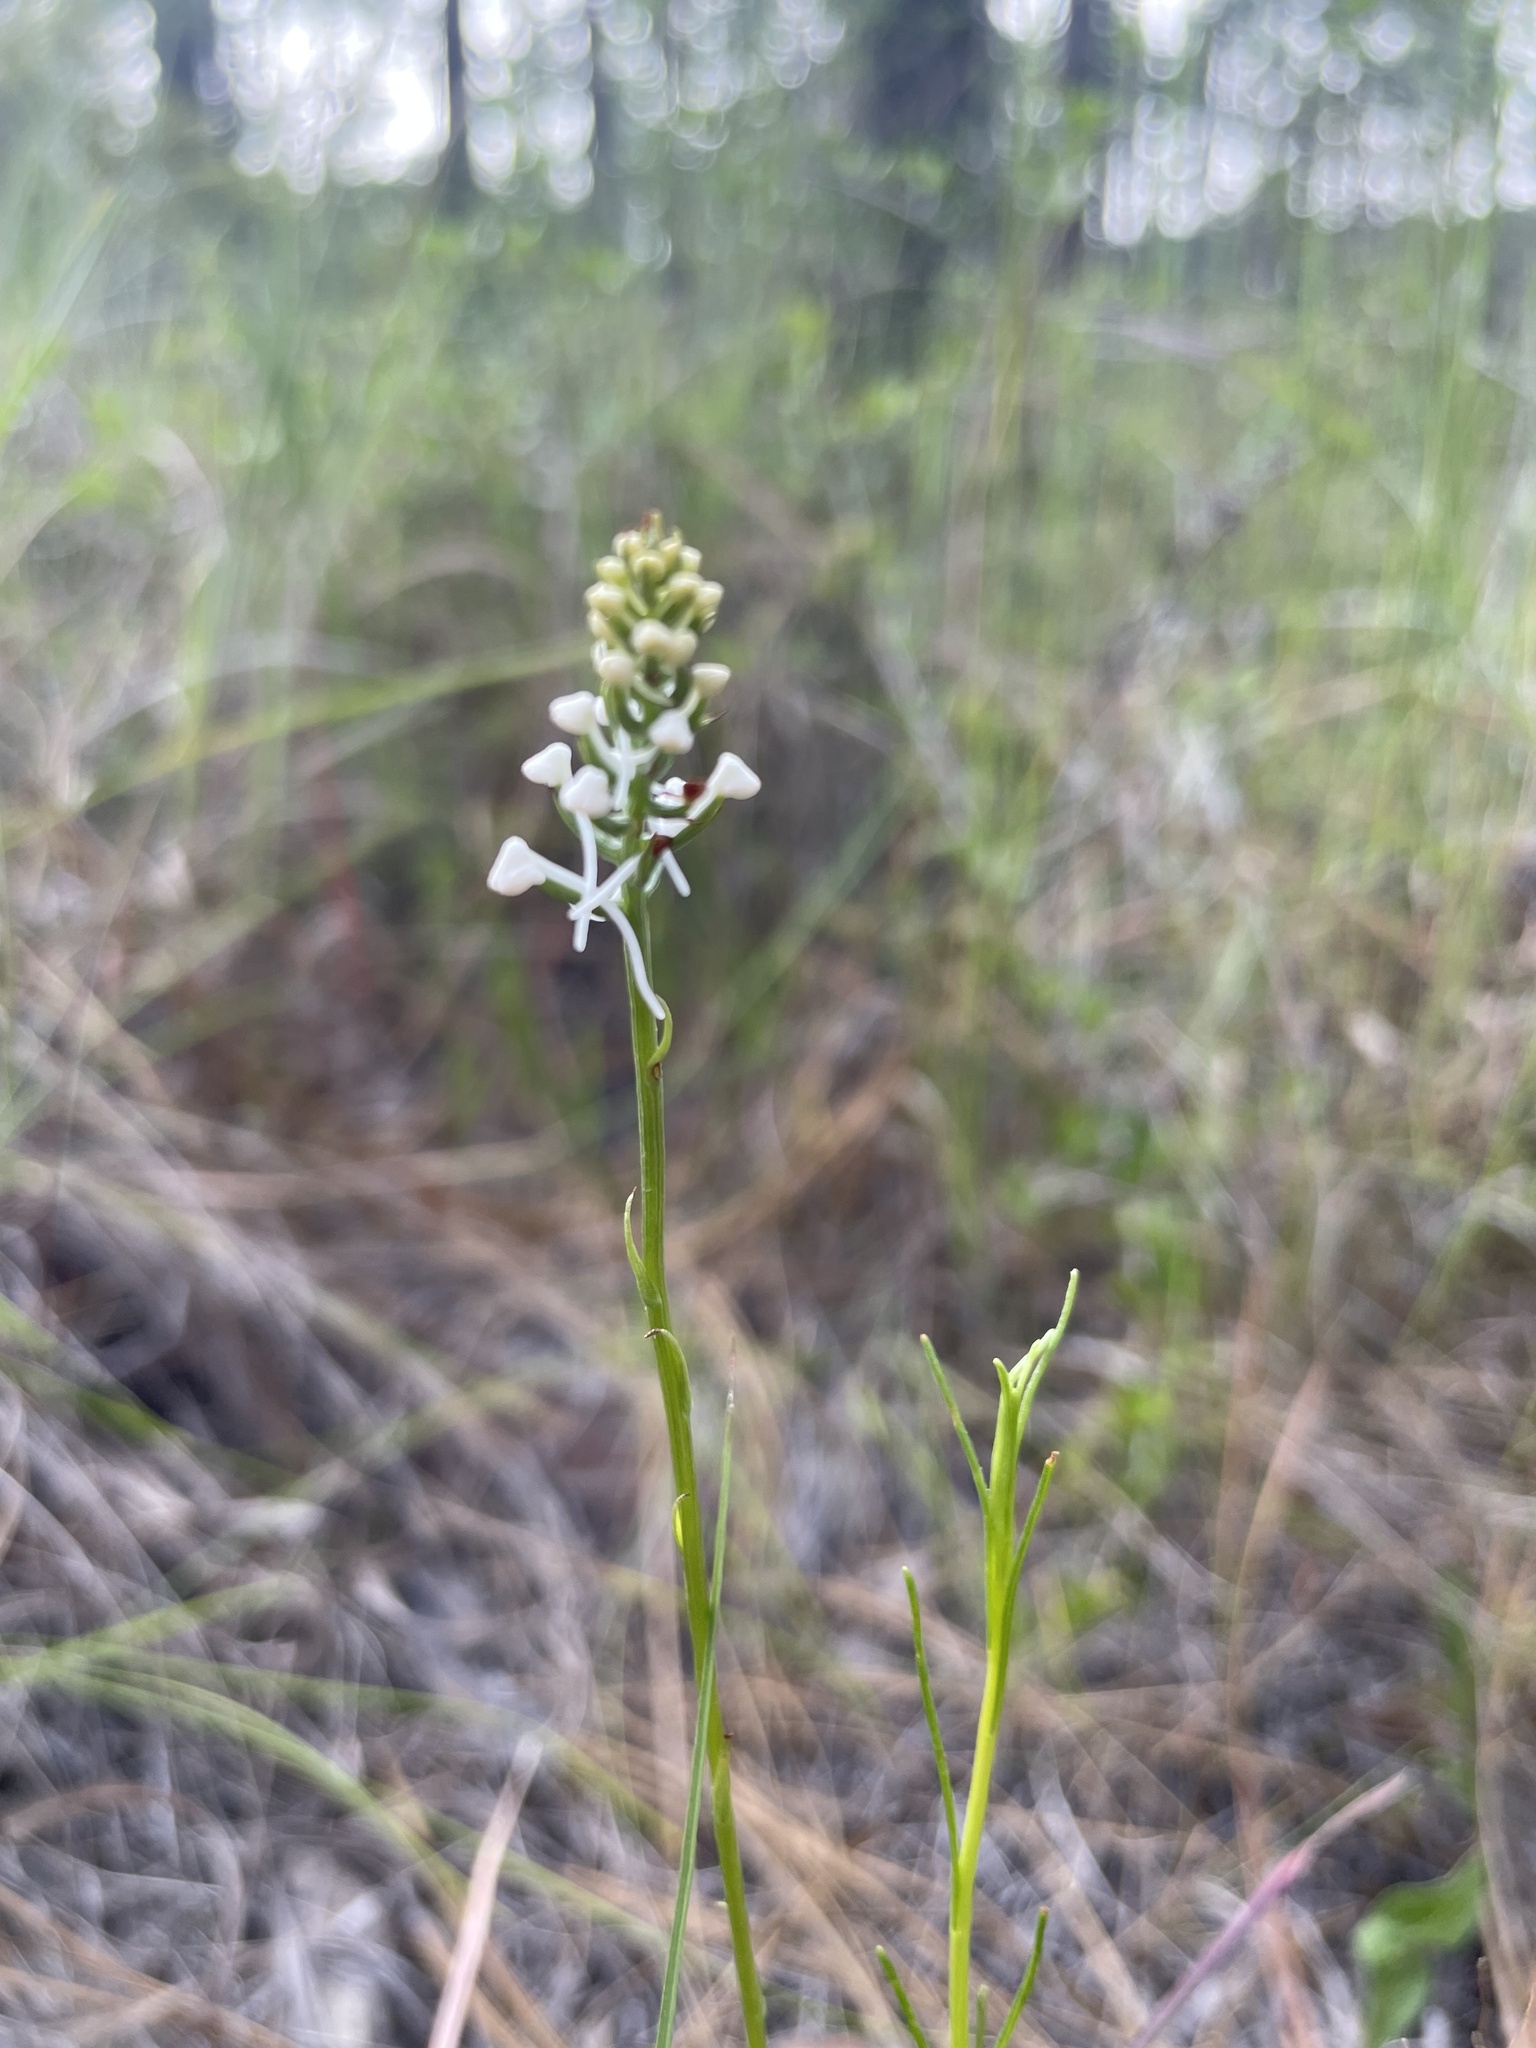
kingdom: Plantae
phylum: Tracheophyta
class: Liliopsida
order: Asparagales
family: Orchidaceae
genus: Platanthera
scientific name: Platanthera nivea
